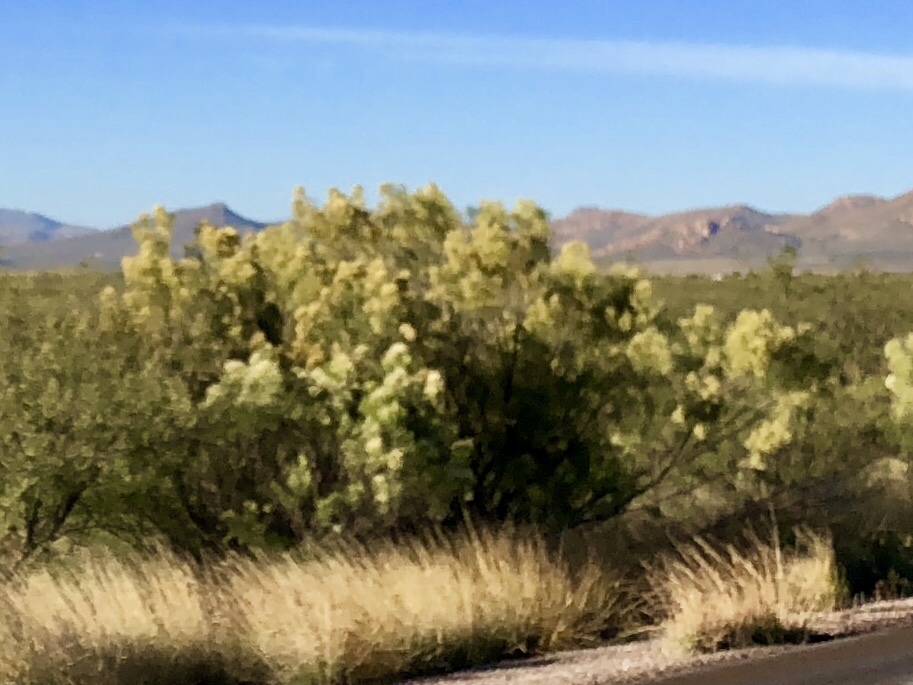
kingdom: Plantae
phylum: Tracheophyta
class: Magnoliopsida
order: Asterales
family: Asteraceae
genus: Baccharis
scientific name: Baccharis sarothroides
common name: Desert-broom
